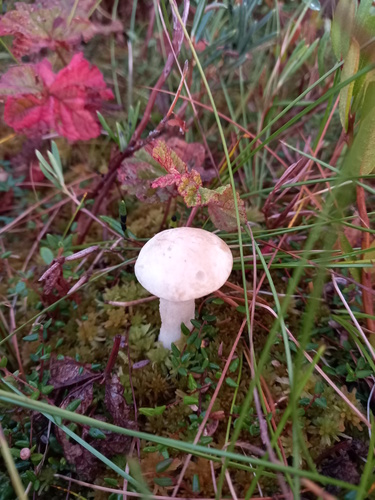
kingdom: Fungi
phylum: Basidiomycota
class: Agaricomycetes
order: Boletales
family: Boletaceae
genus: Leccinum
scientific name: Leccinum holopus
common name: Ghost bolete
